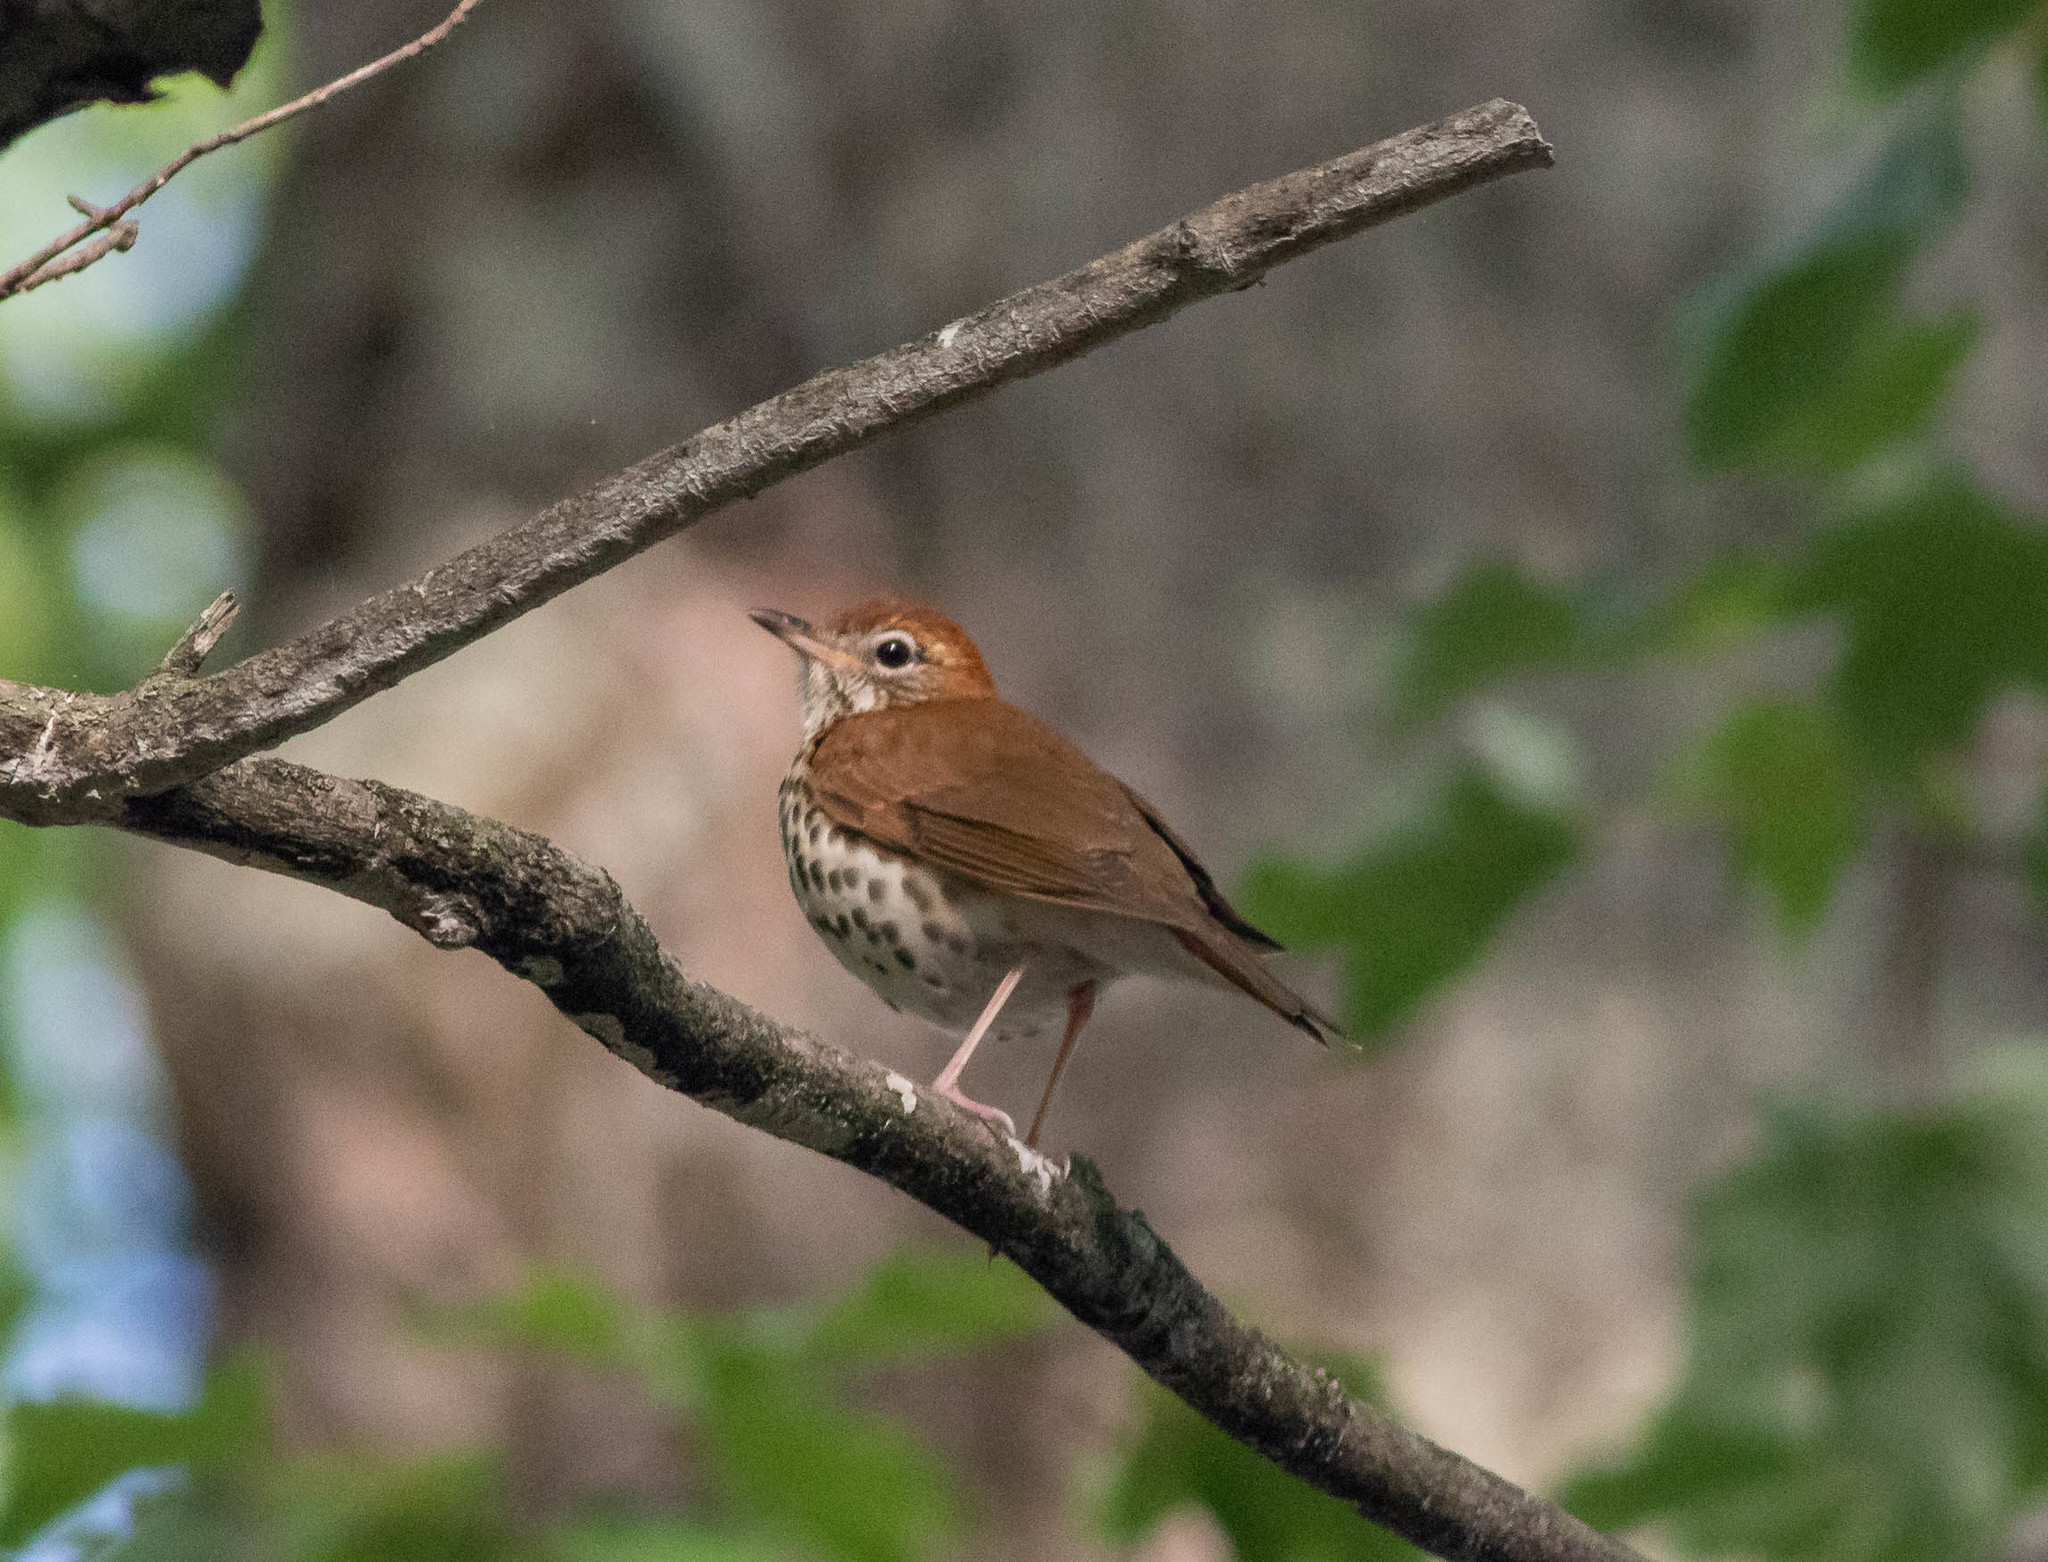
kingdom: Animalia
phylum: Chordata
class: Aves
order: Passeriformes
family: Turdidae
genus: Hylocichla
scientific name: Hylocichla mustelina
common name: Wood thrush
